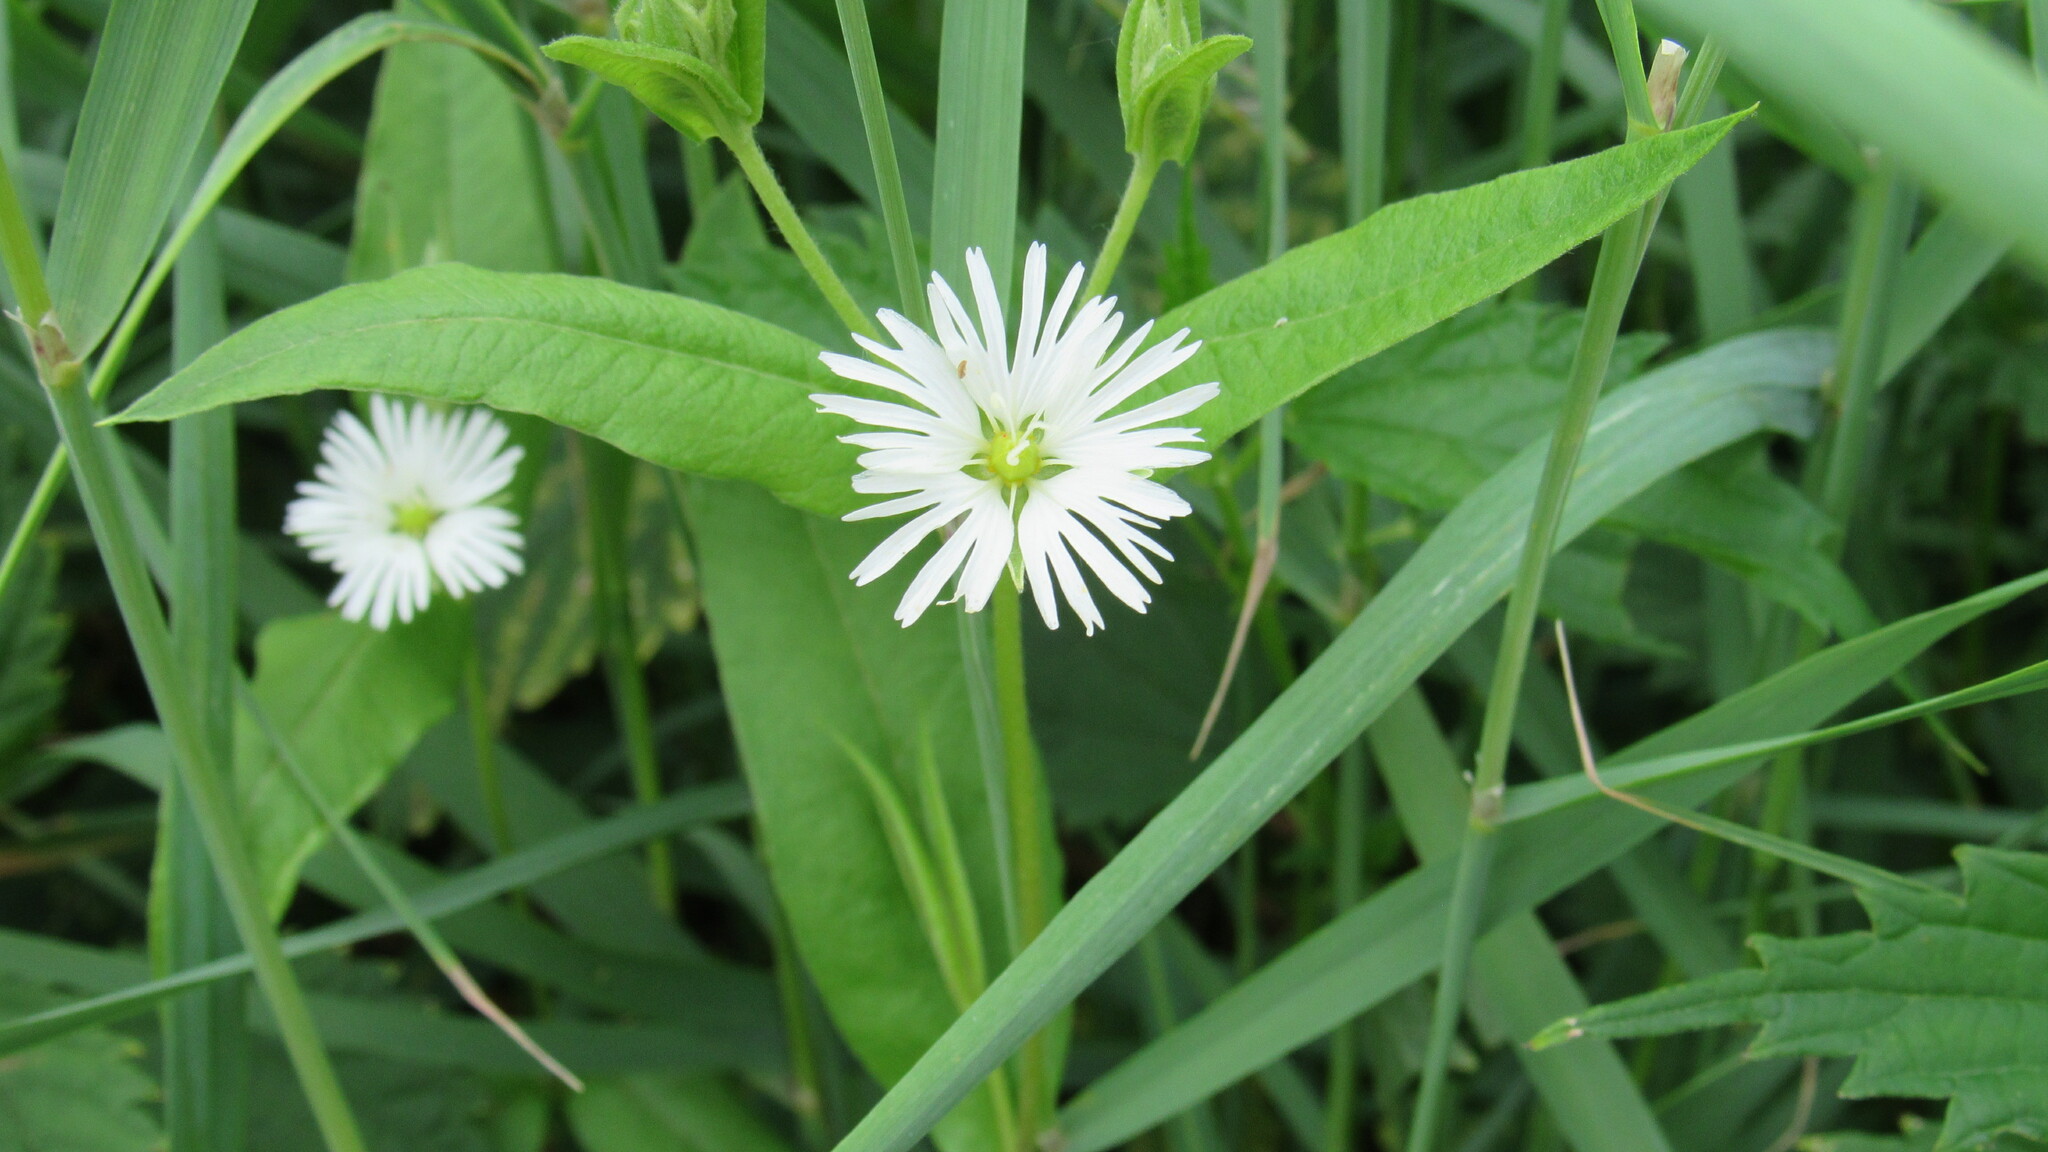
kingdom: Plantae
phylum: Tracheophyta
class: Magnoliopsida
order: Caryophyllales
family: Caryophyllaceae
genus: Stellaria
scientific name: Stellaria radians
